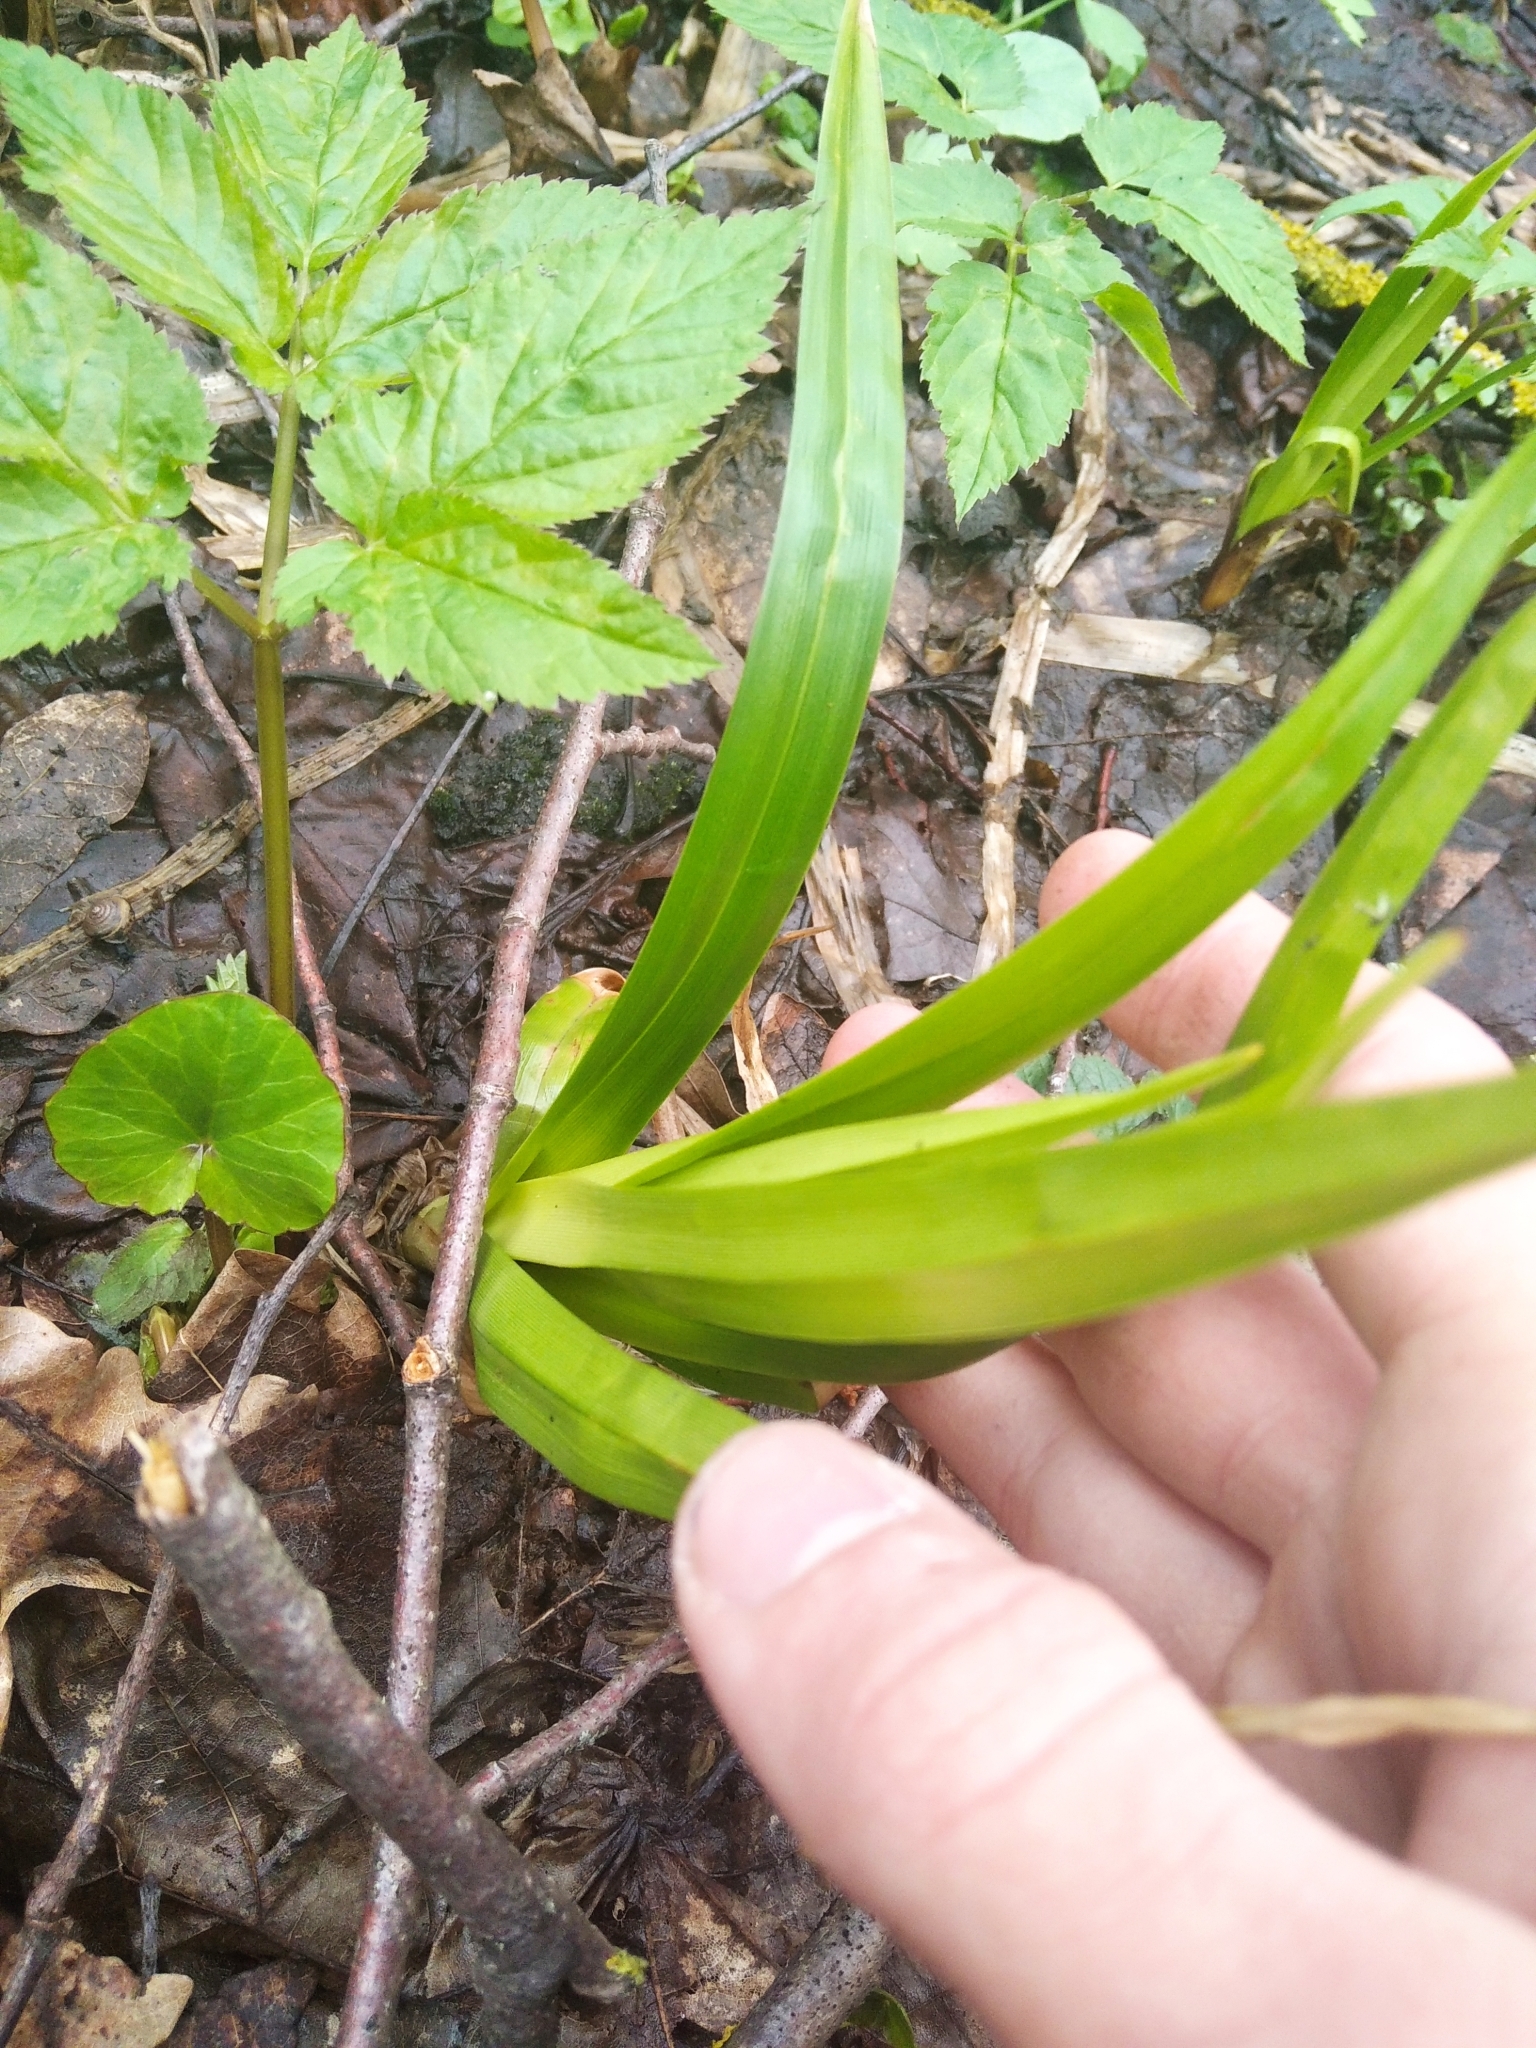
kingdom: Plantae
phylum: Tracheophyta
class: Liliopsida
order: Poales
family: Cyperaceae
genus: Scirpus
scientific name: Scirpus sylvaticus
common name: Wood club-rush
